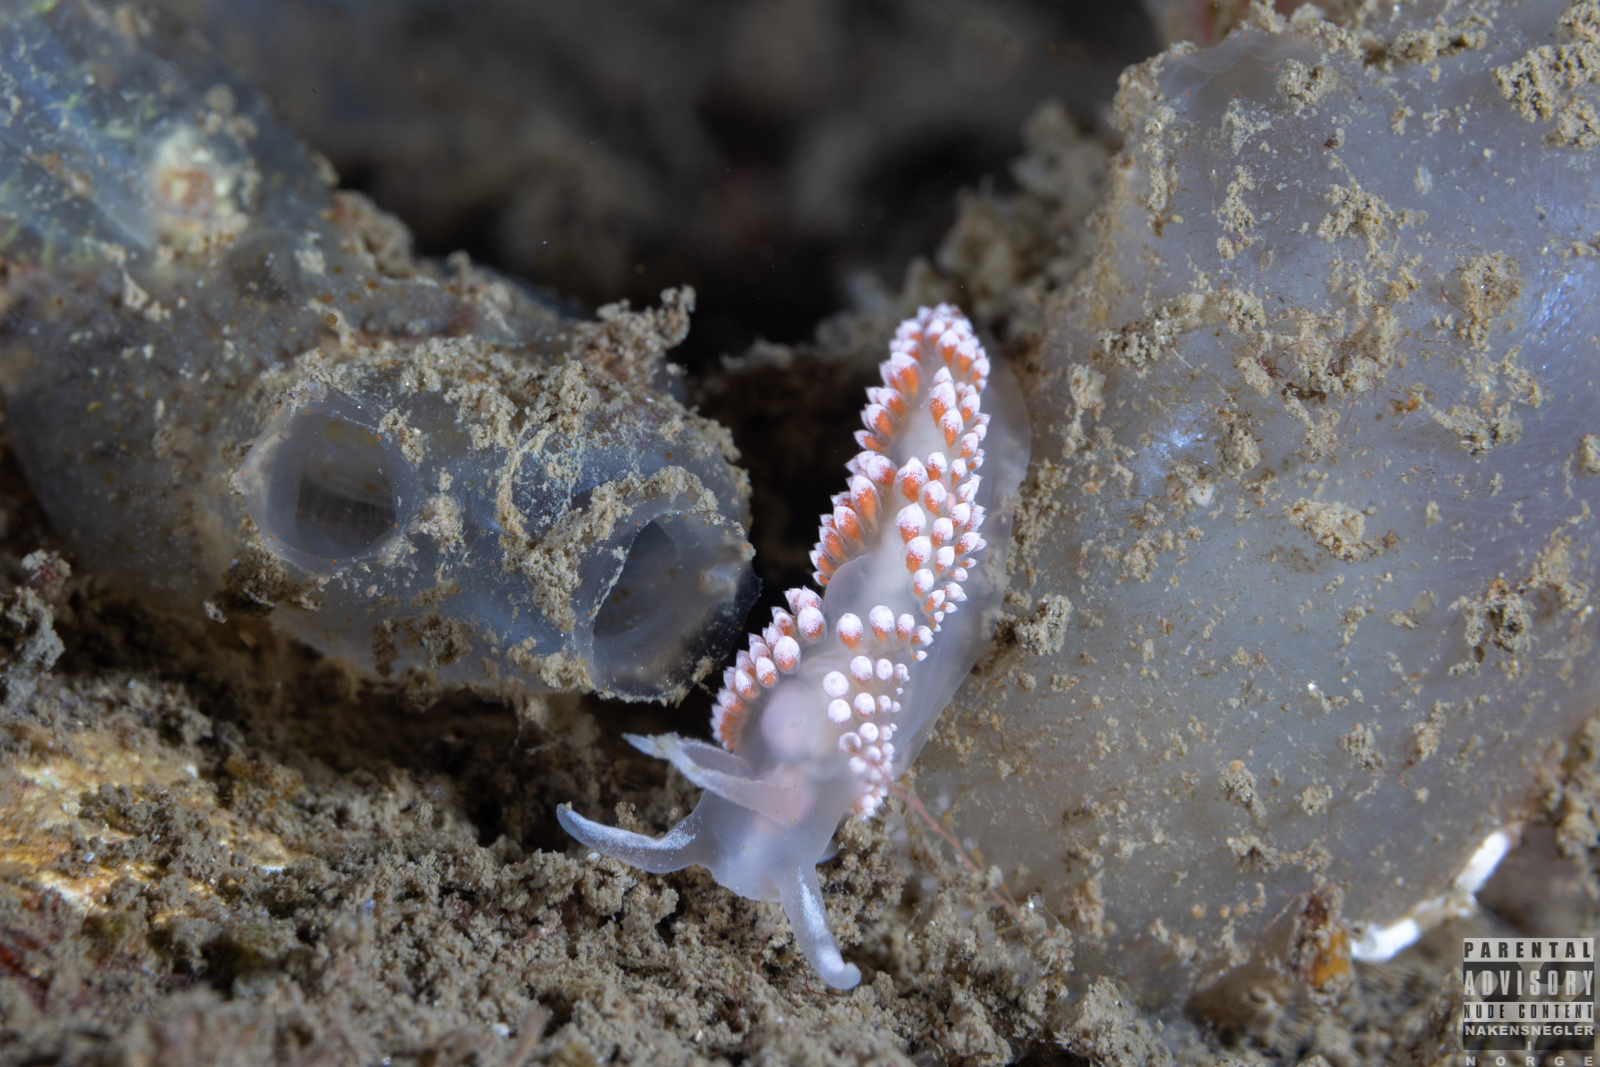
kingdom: Animalia
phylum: Mollusca
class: Gastropoda
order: Nudibranchia
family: Coryphellidae
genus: Coryphella
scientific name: Coryphella verrucosa
